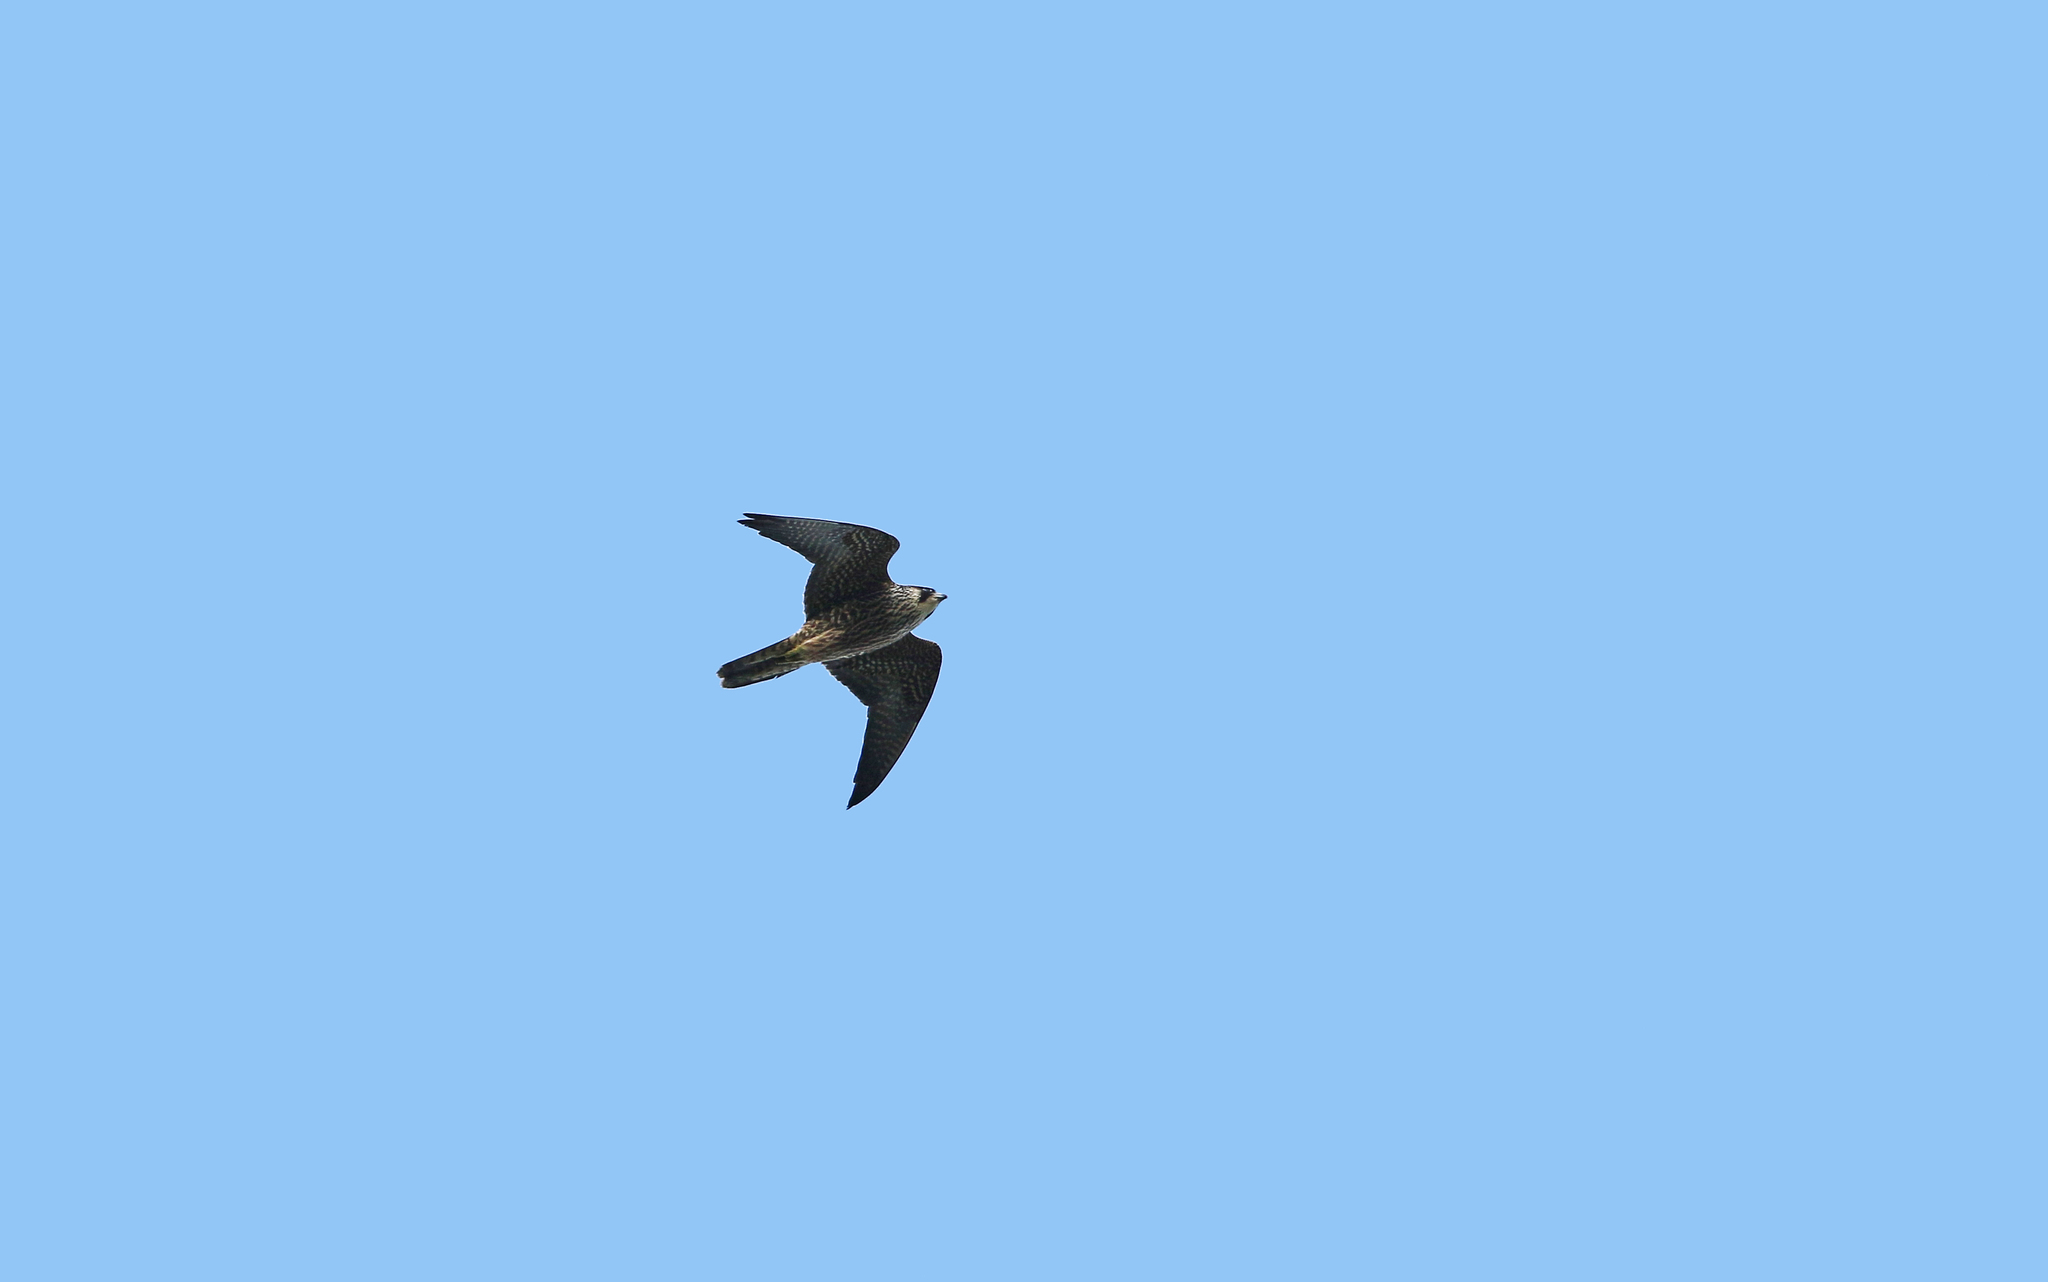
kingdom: Animalia
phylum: Chordata
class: Aves
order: Falconiformes
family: Falconidae
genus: Falco
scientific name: Falco peregrinus
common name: Peregrine falcon
